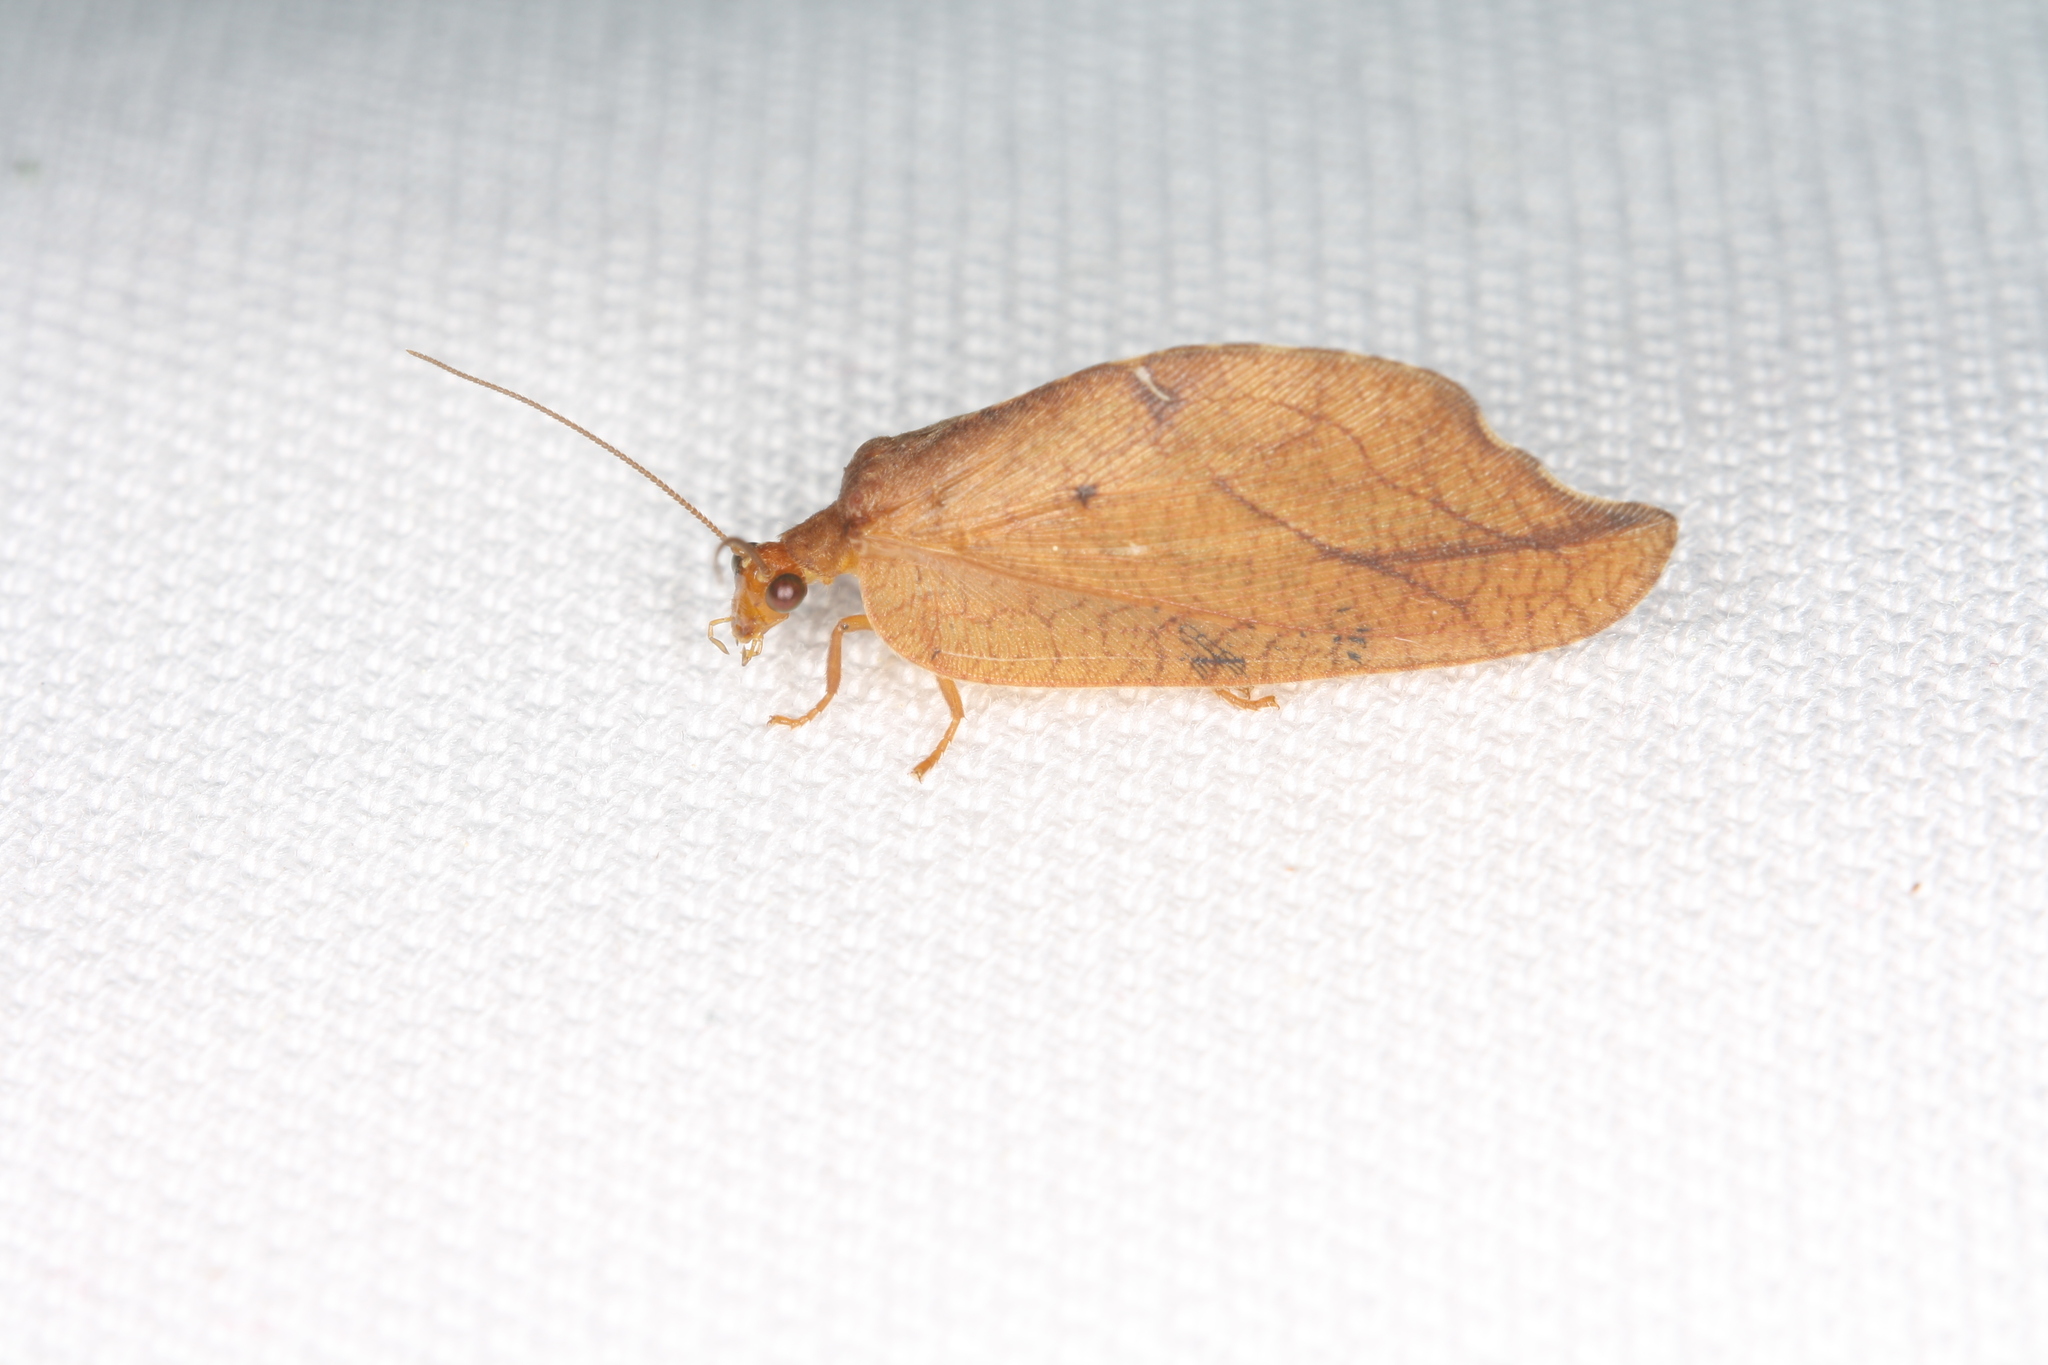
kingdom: Animalia
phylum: Arthropoda
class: Insecta
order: Neuroptera
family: Hemerobiidae
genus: Drepanepteryx
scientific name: Drepanepteryx phalaenoides
